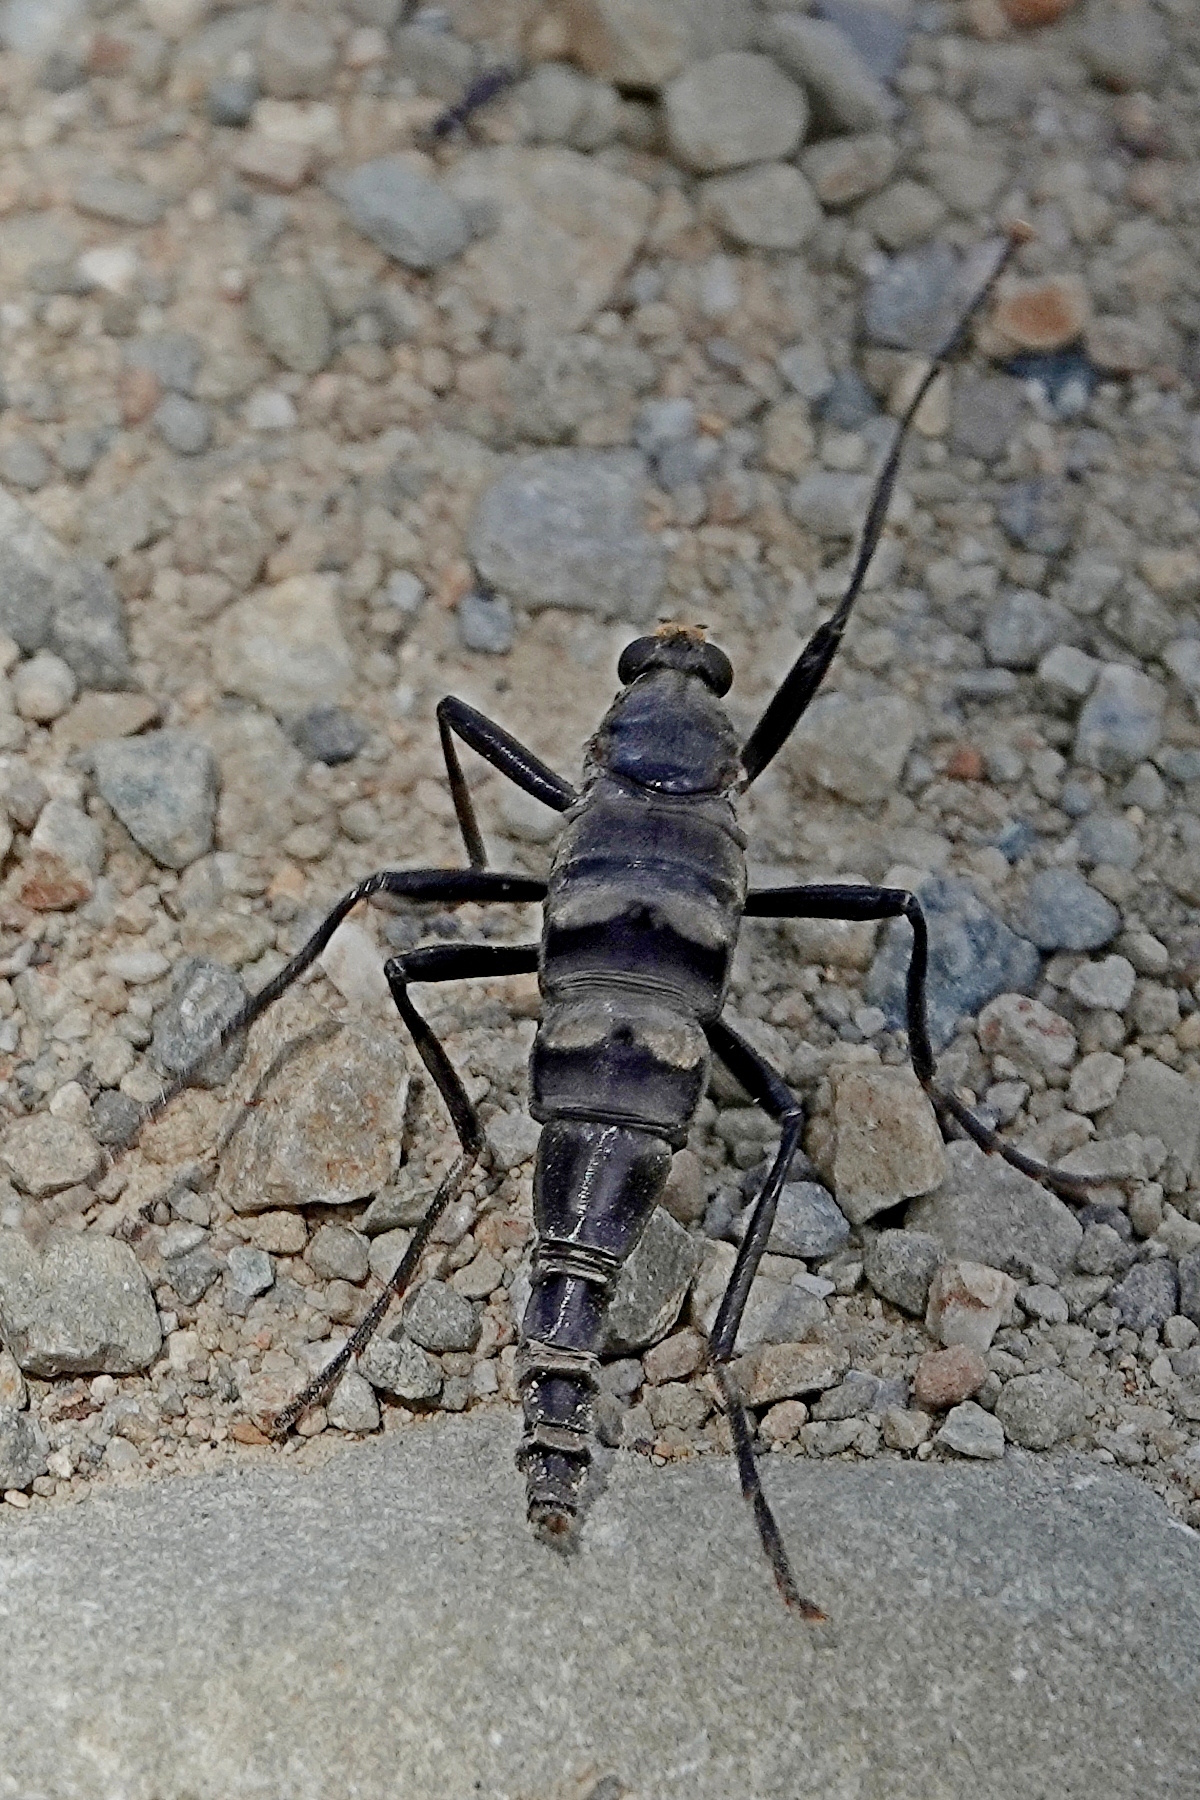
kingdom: Animalia
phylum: Arthropoda
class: Insecta
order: Diptera
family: Stratiomyidae
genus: Boreoides
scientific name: Boreoides subulatus
